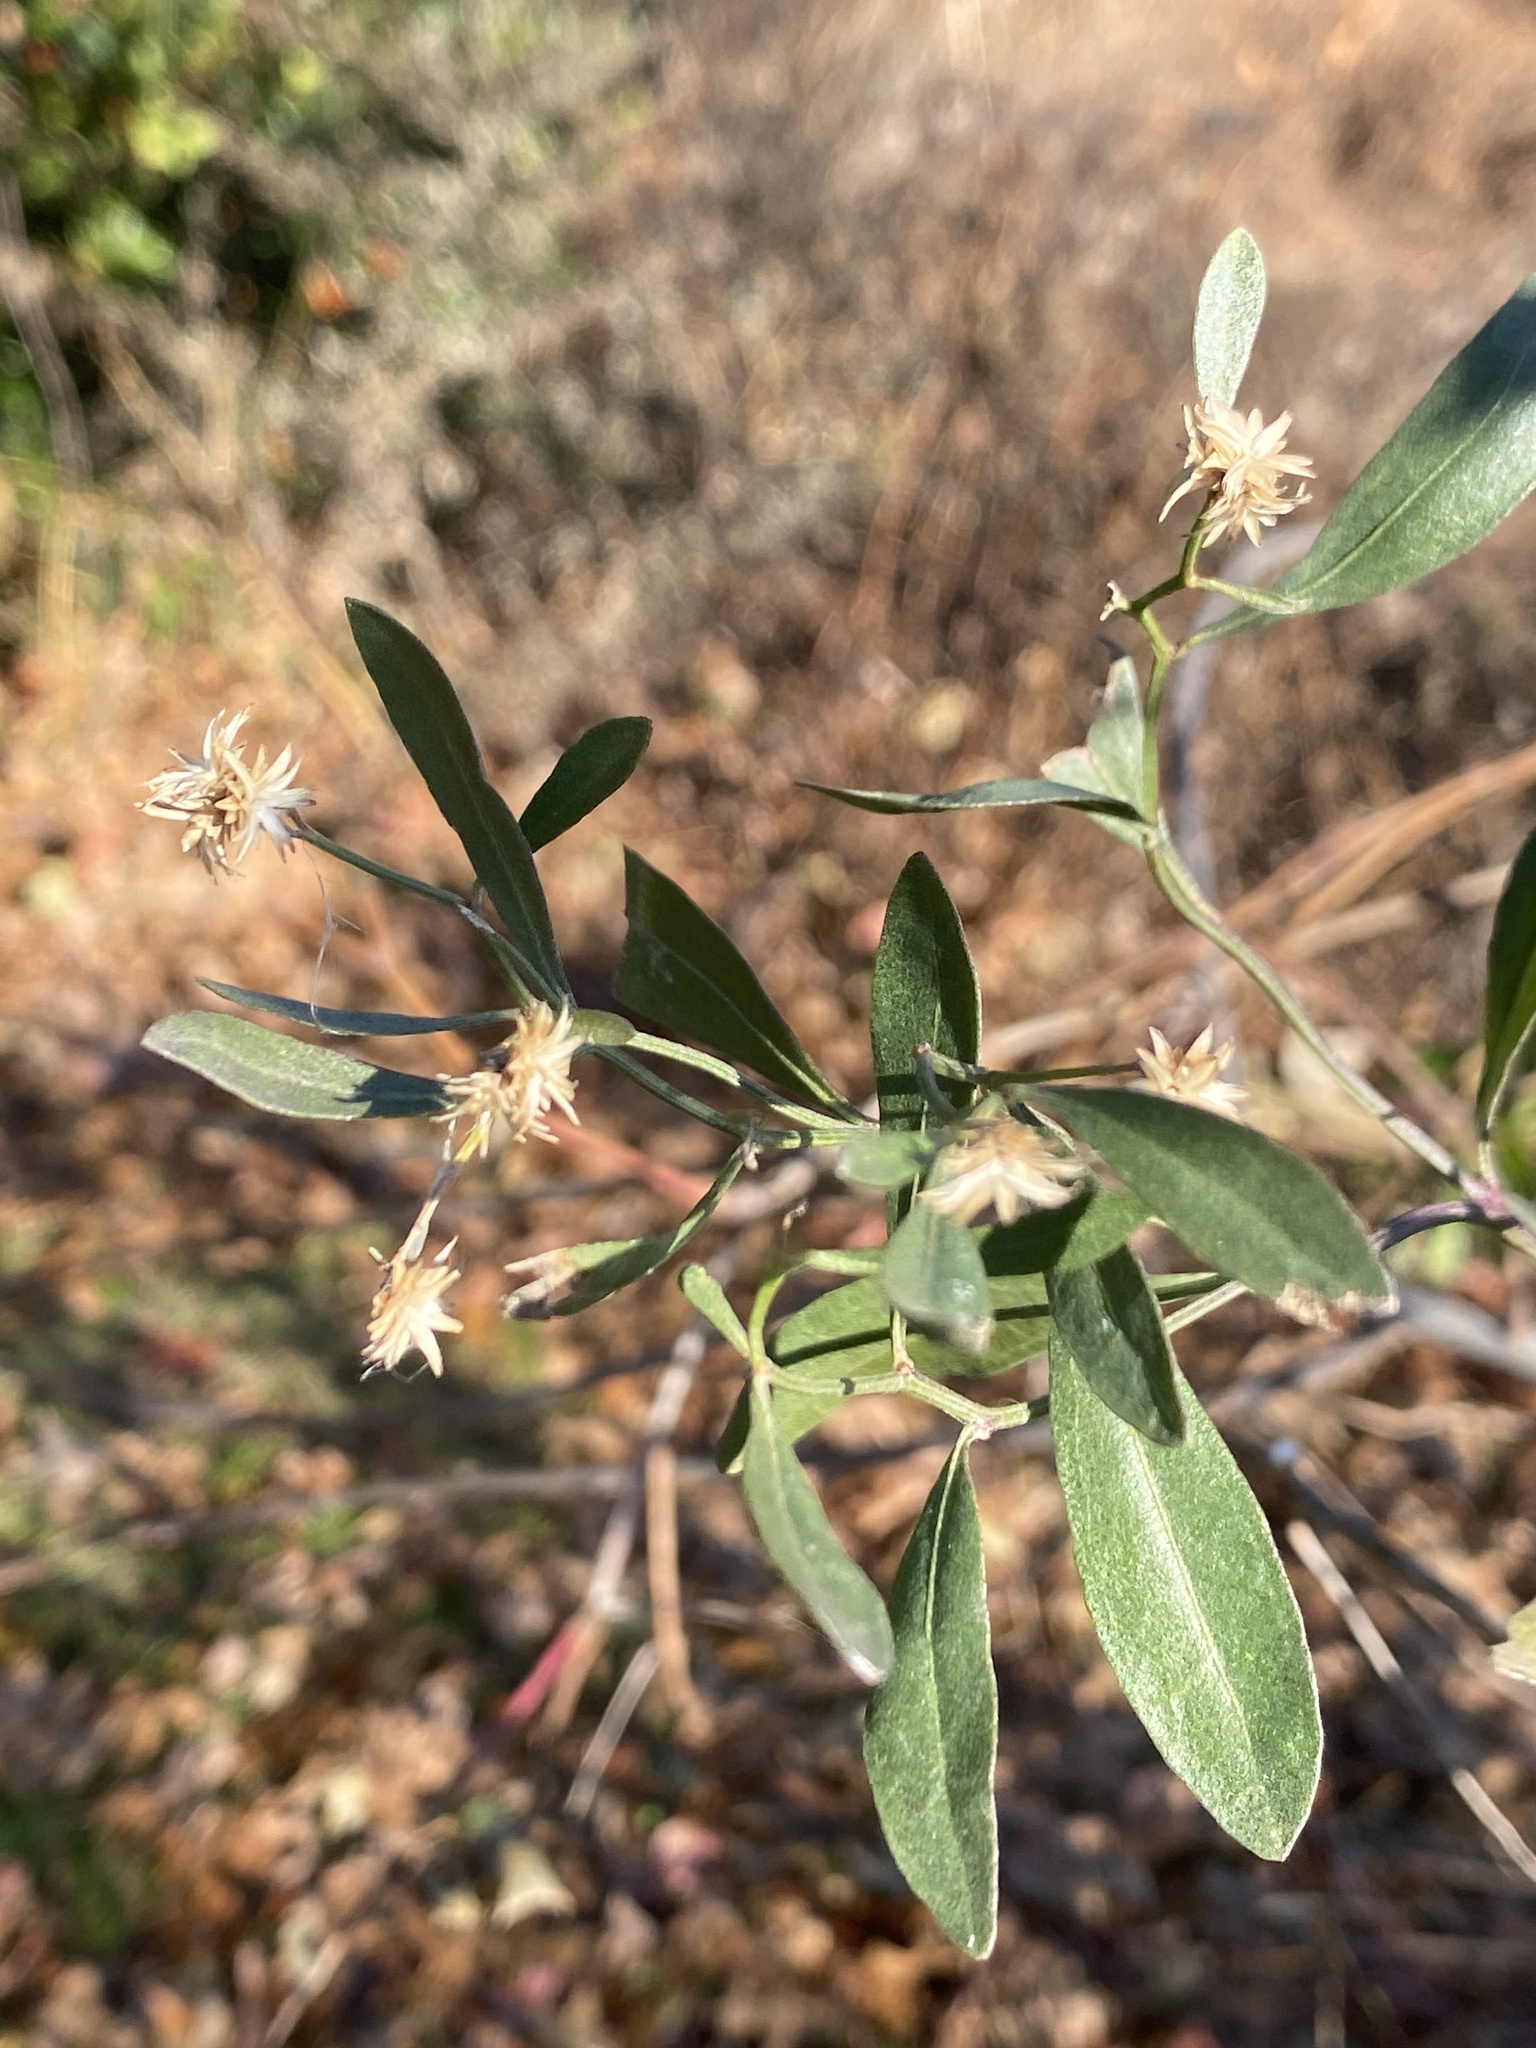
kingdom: Plantae
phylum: Tracheophyta
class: Magnoliopsida
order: Asterales
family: Asteraceae
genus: Baccharis
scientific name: Baccharis halimifolia
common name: Eastern baccharis
